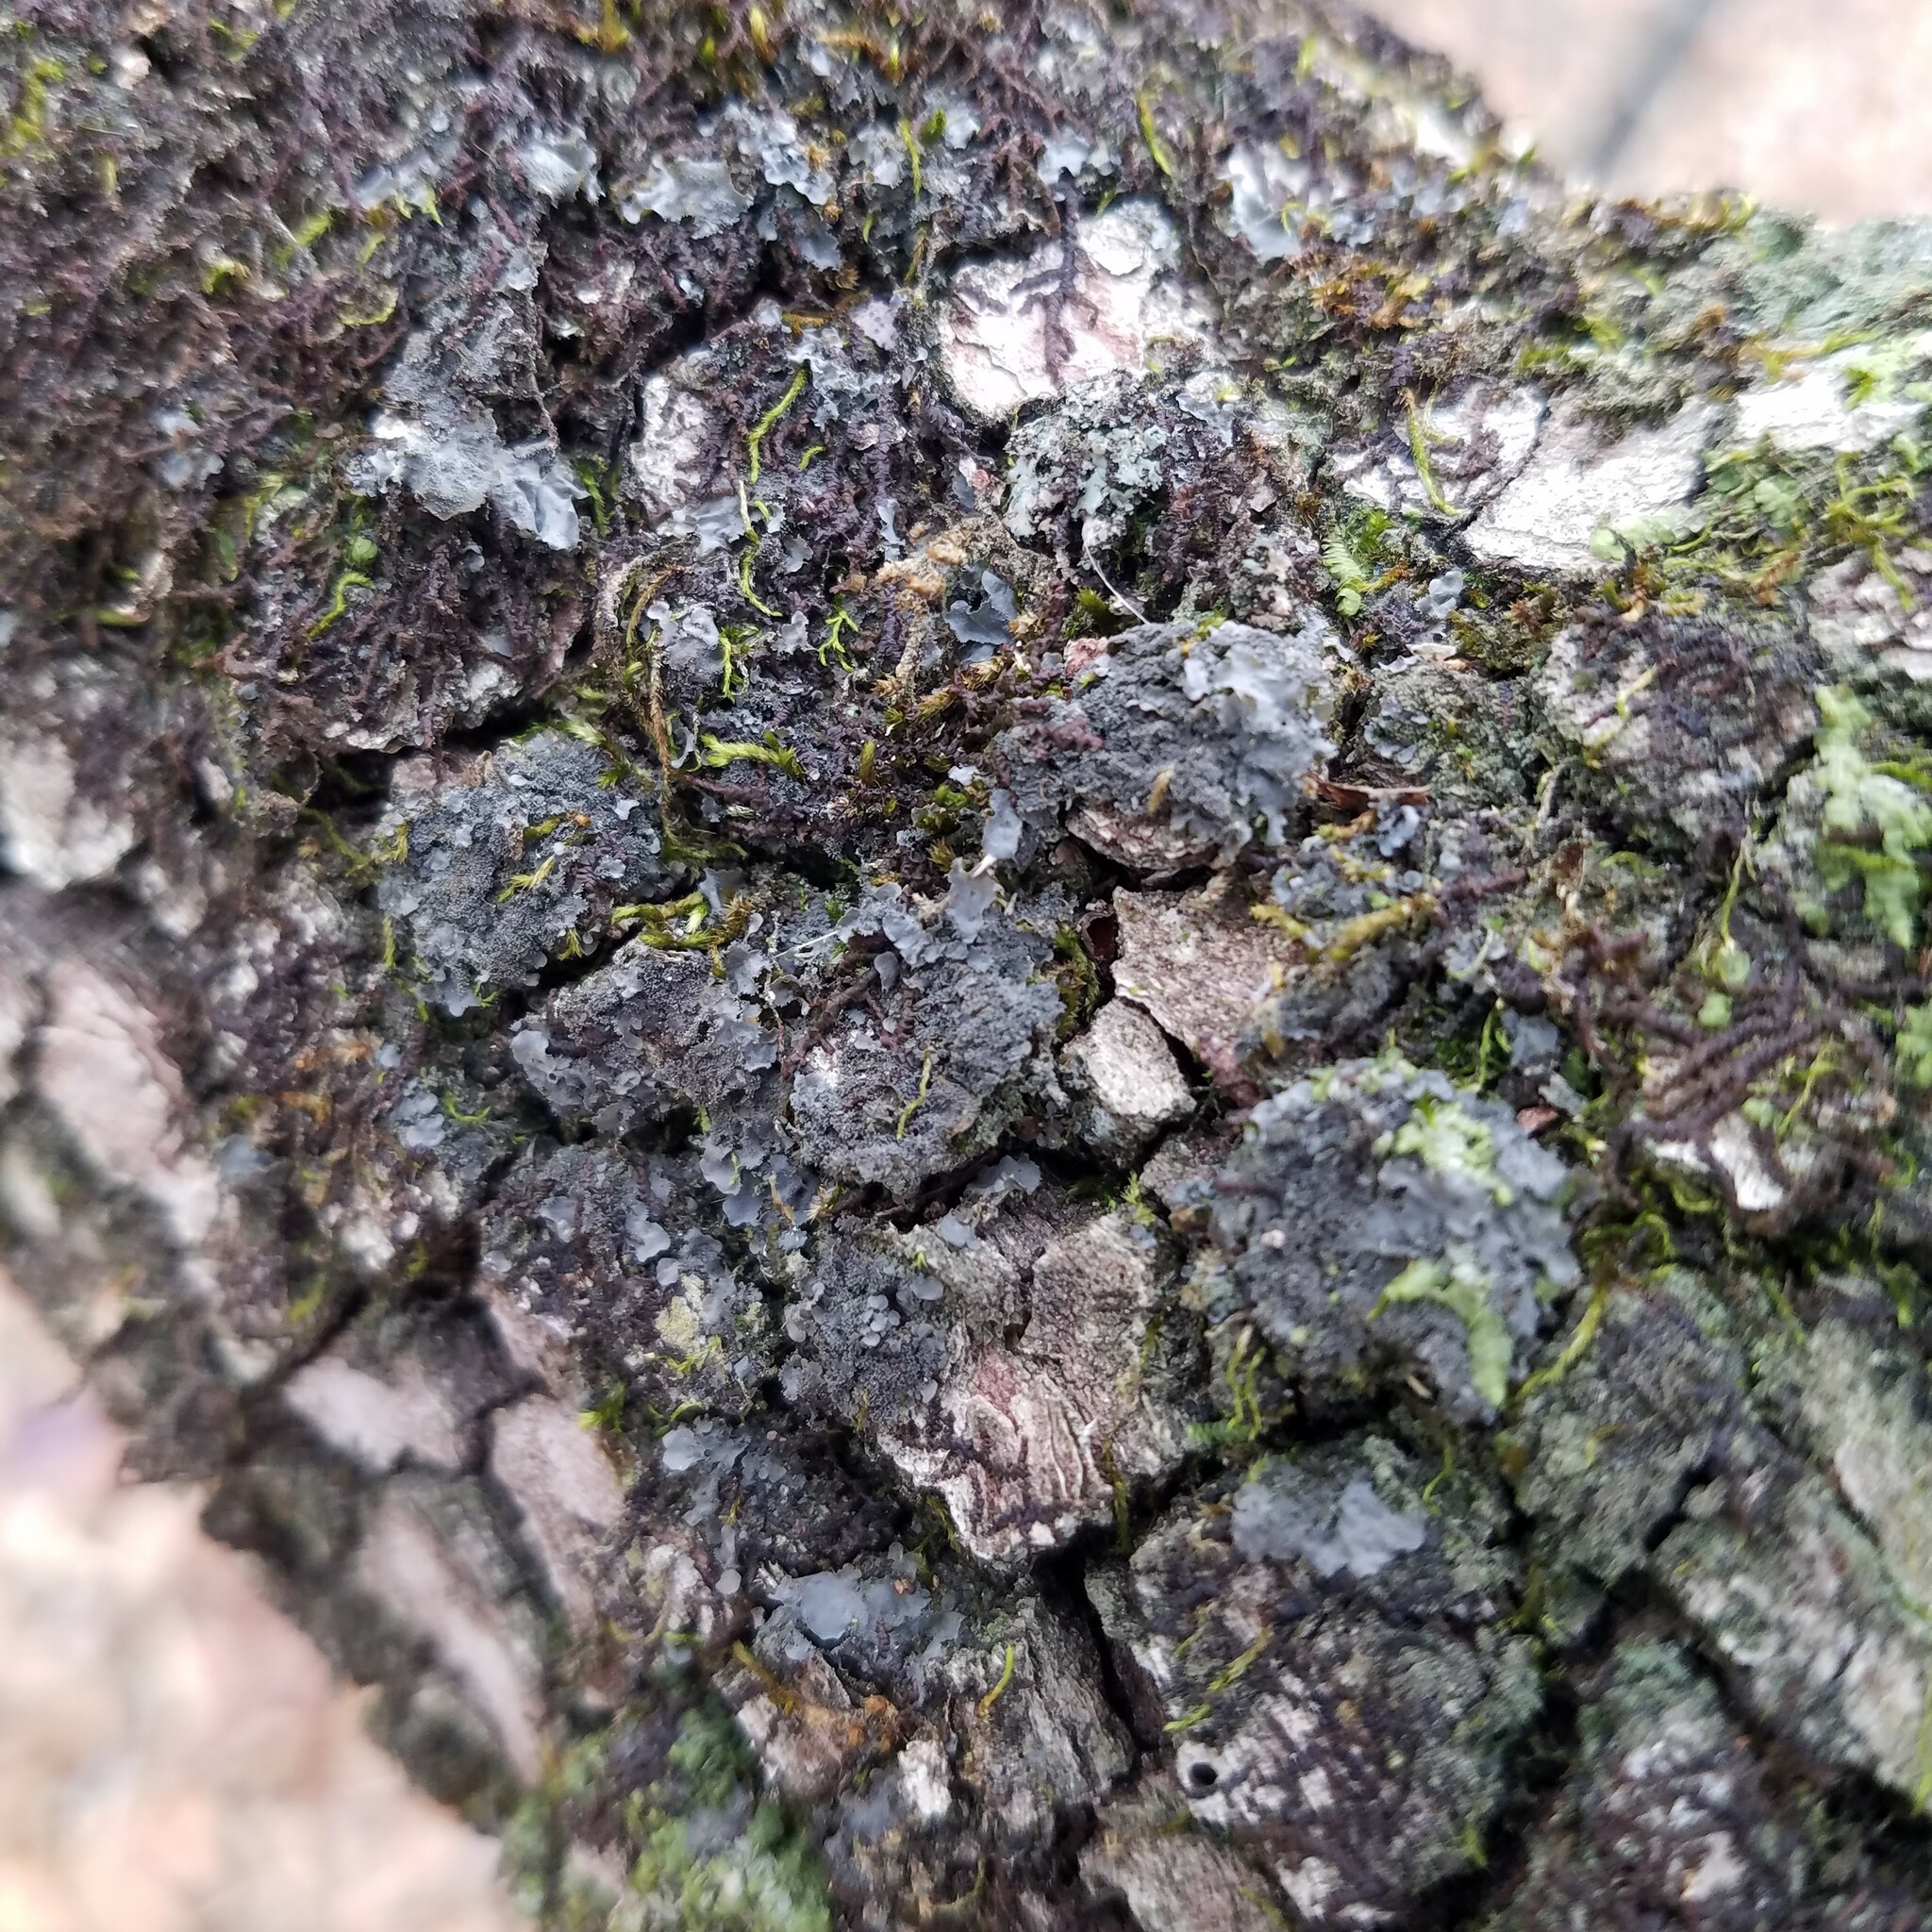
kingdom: Fungi
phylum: Ascomycota
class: Lecanoromycetes
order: Peltigerales
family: Collemataceae
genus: Leptogium
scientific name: Leptogium cyanescens
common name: Blue jellyskin
